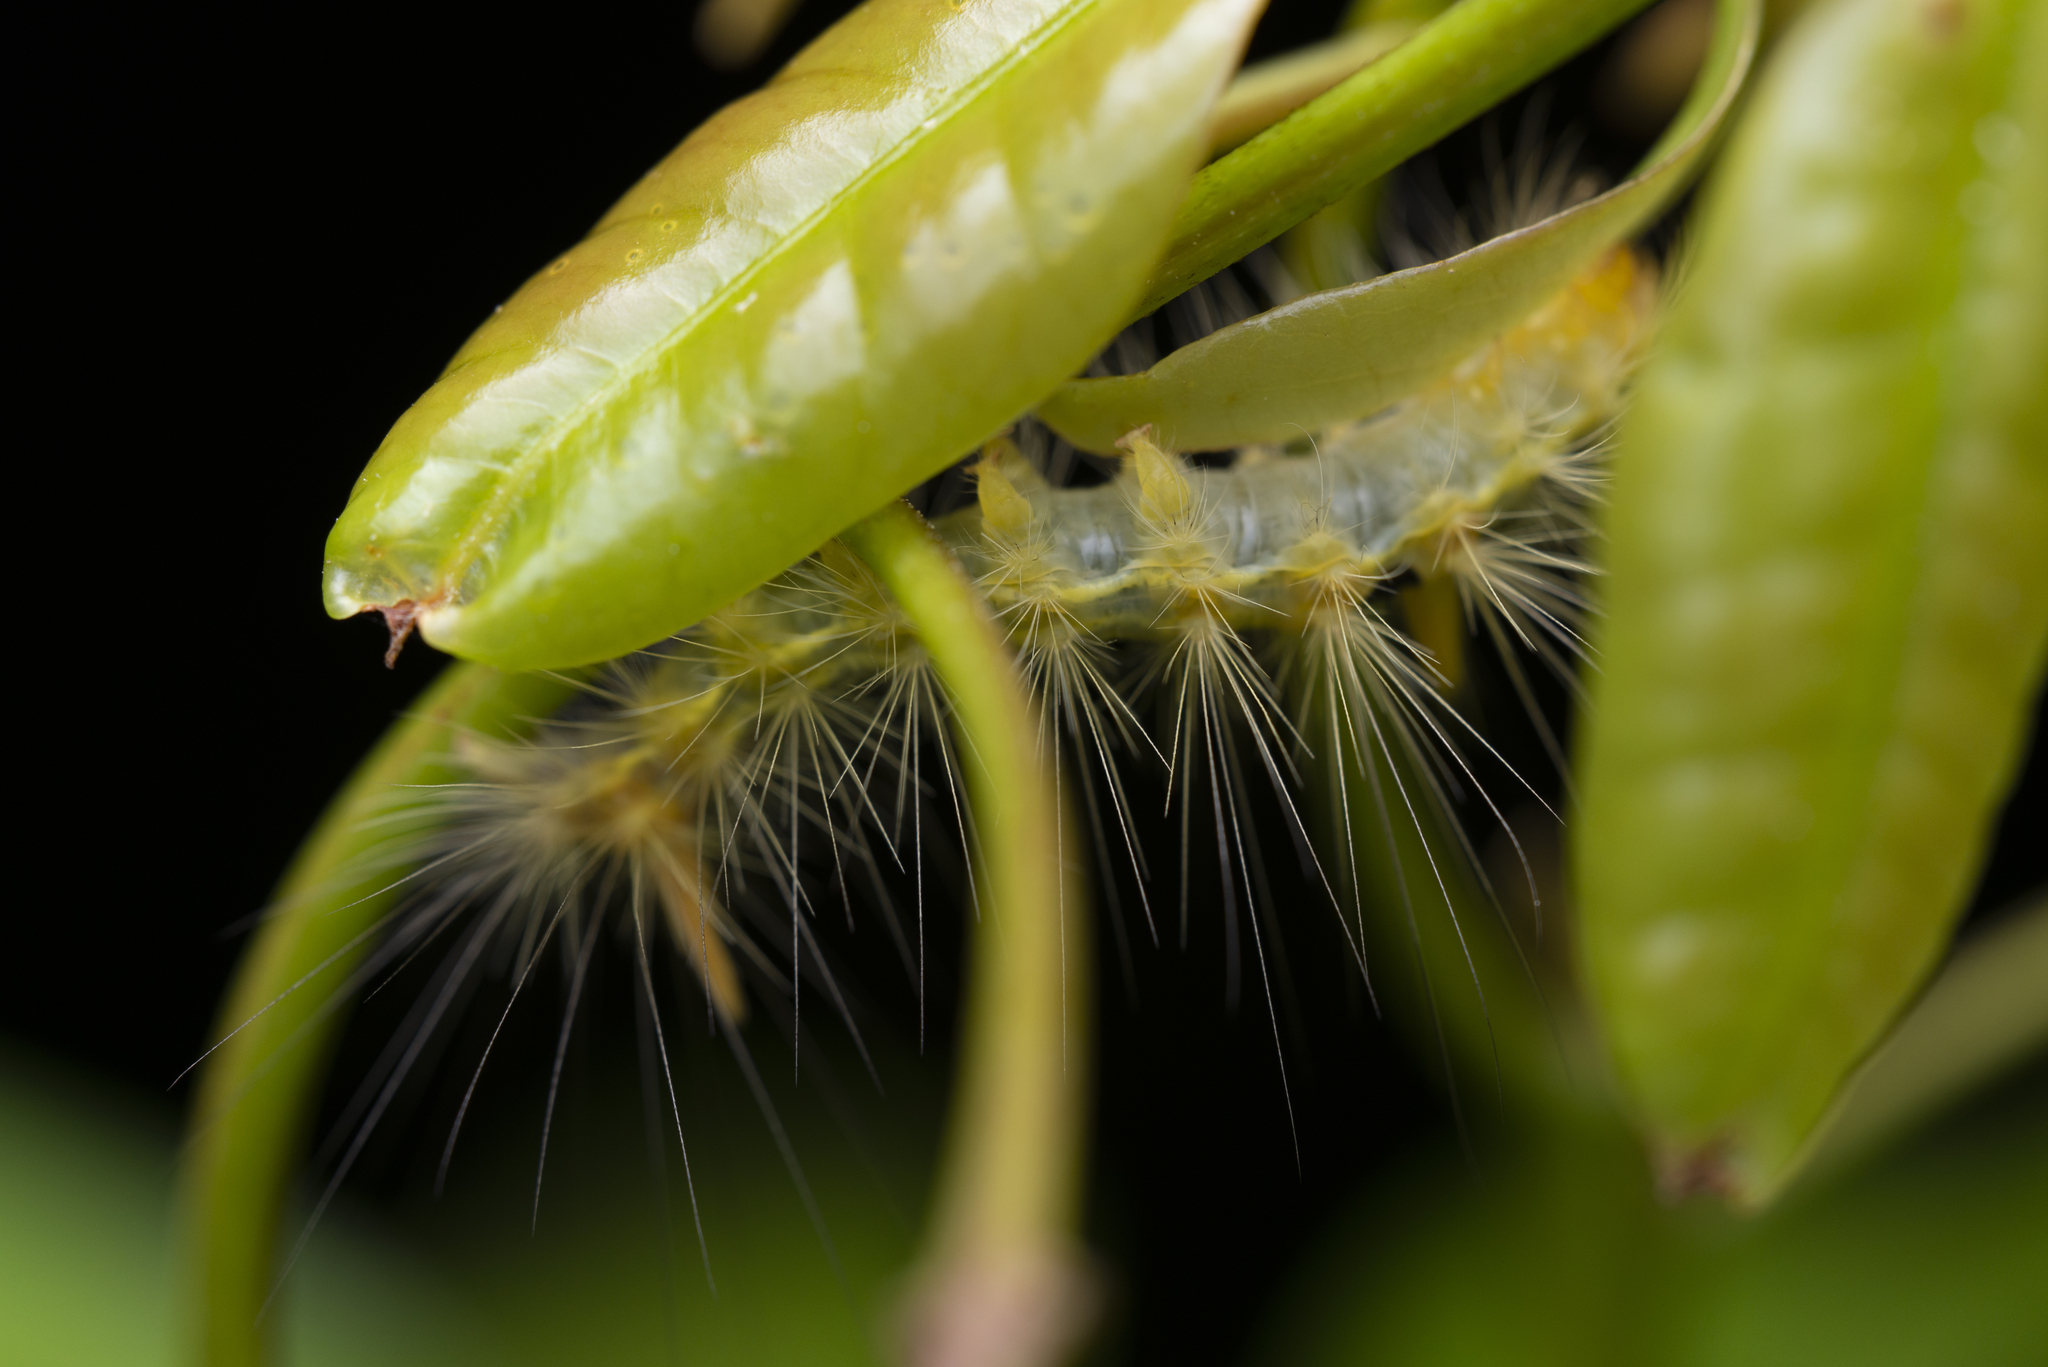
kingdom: Animalia
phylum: Arthropoda
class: Insecta
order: Lepidoptera
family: Erebidae
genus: Calliteara
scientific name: Calliteara grotei
